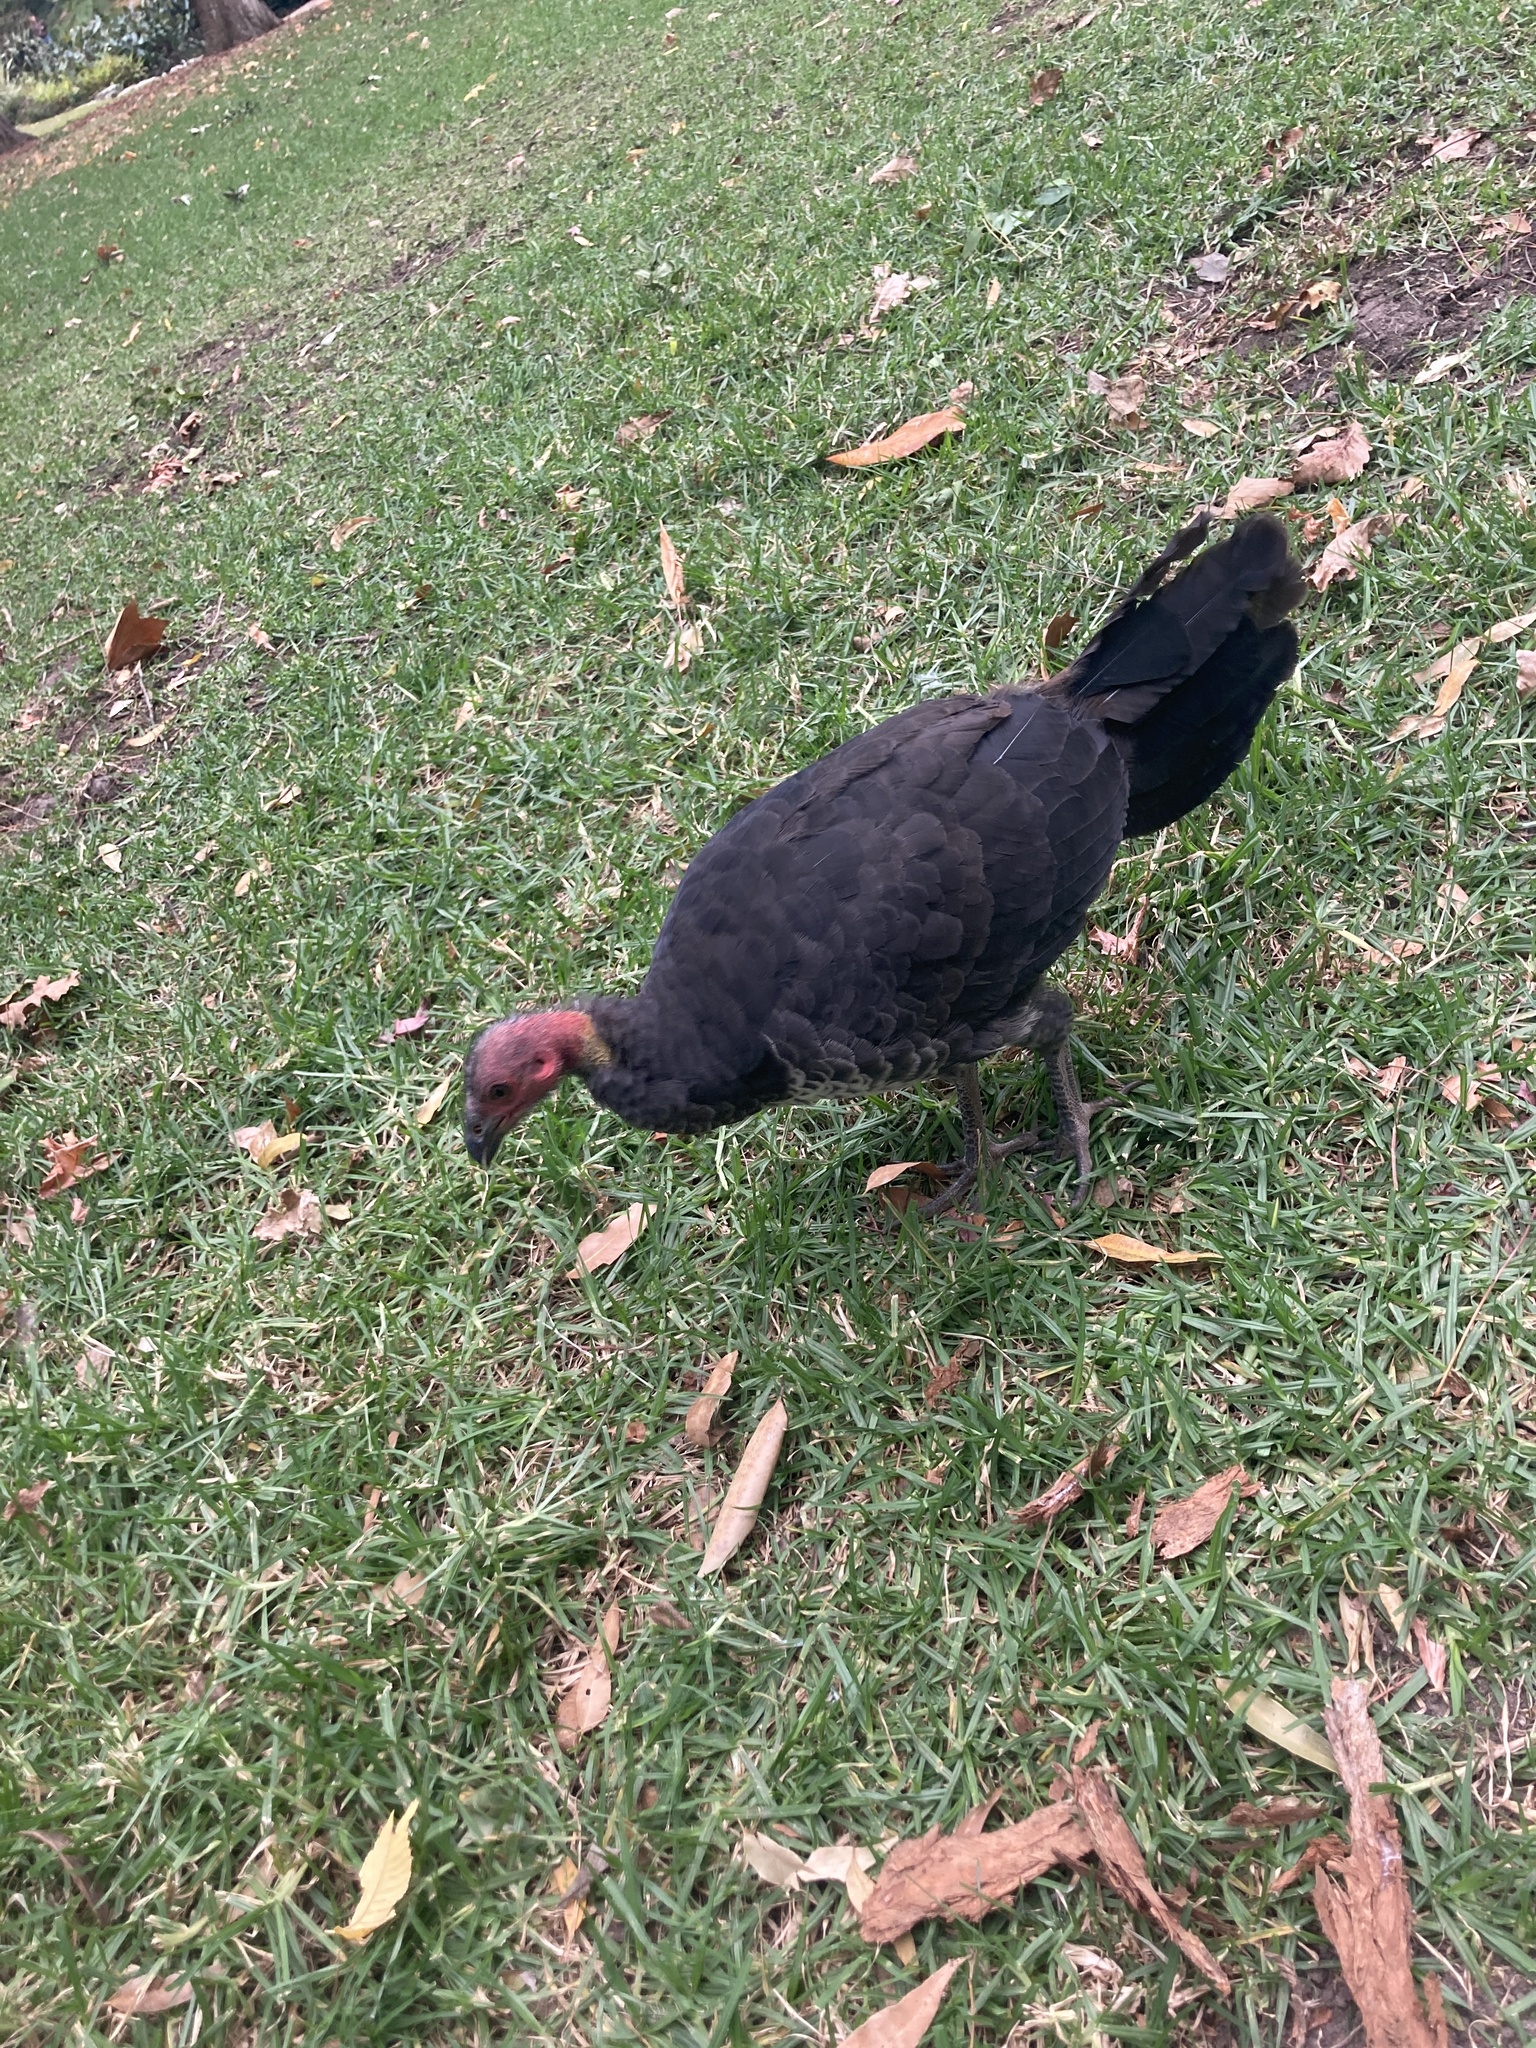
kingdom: Animalia
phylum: Chordata
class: Aves
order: Galliformes
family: Megapodiidae
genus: Alectura
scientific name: Alectura lathami
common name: Australian brushturkey
